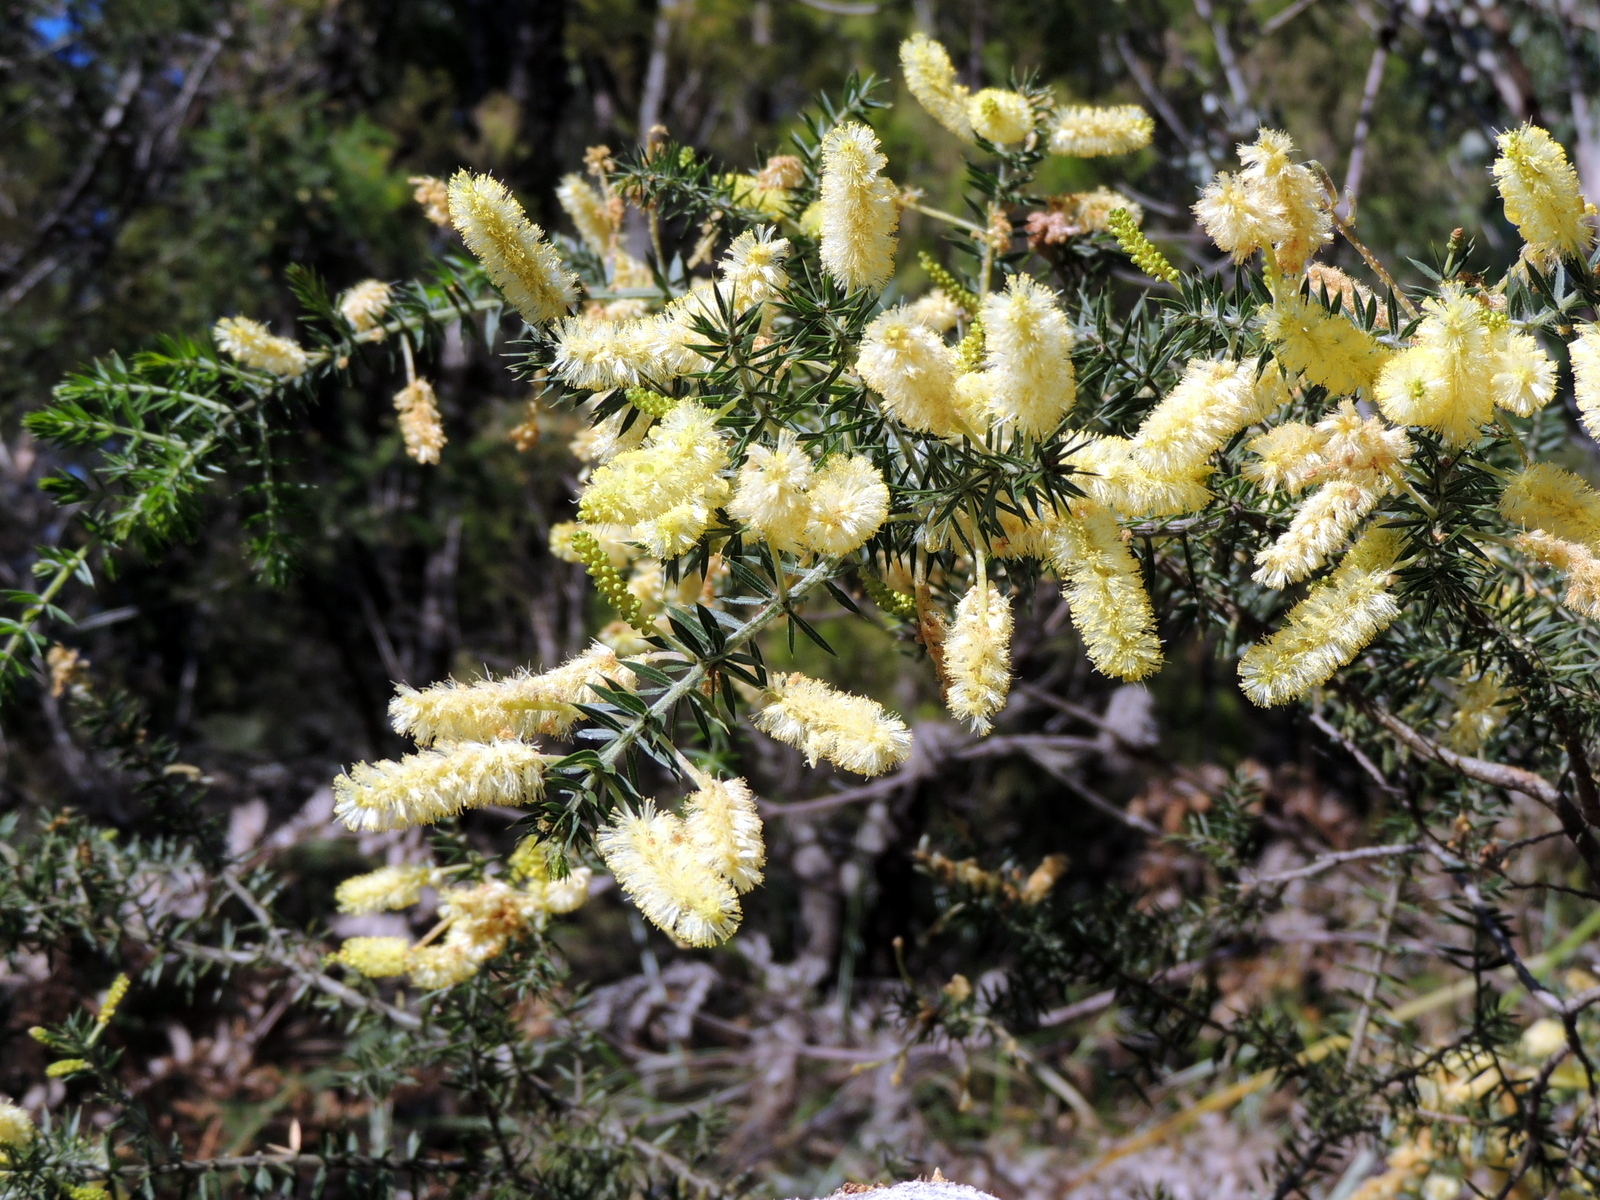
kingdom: Plantae
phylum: Tracheophyta
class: Magnoliopsida
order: Fabales
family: Fabaceae
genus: Acacia
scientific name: Acacia verticillata
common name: Prickly moses
